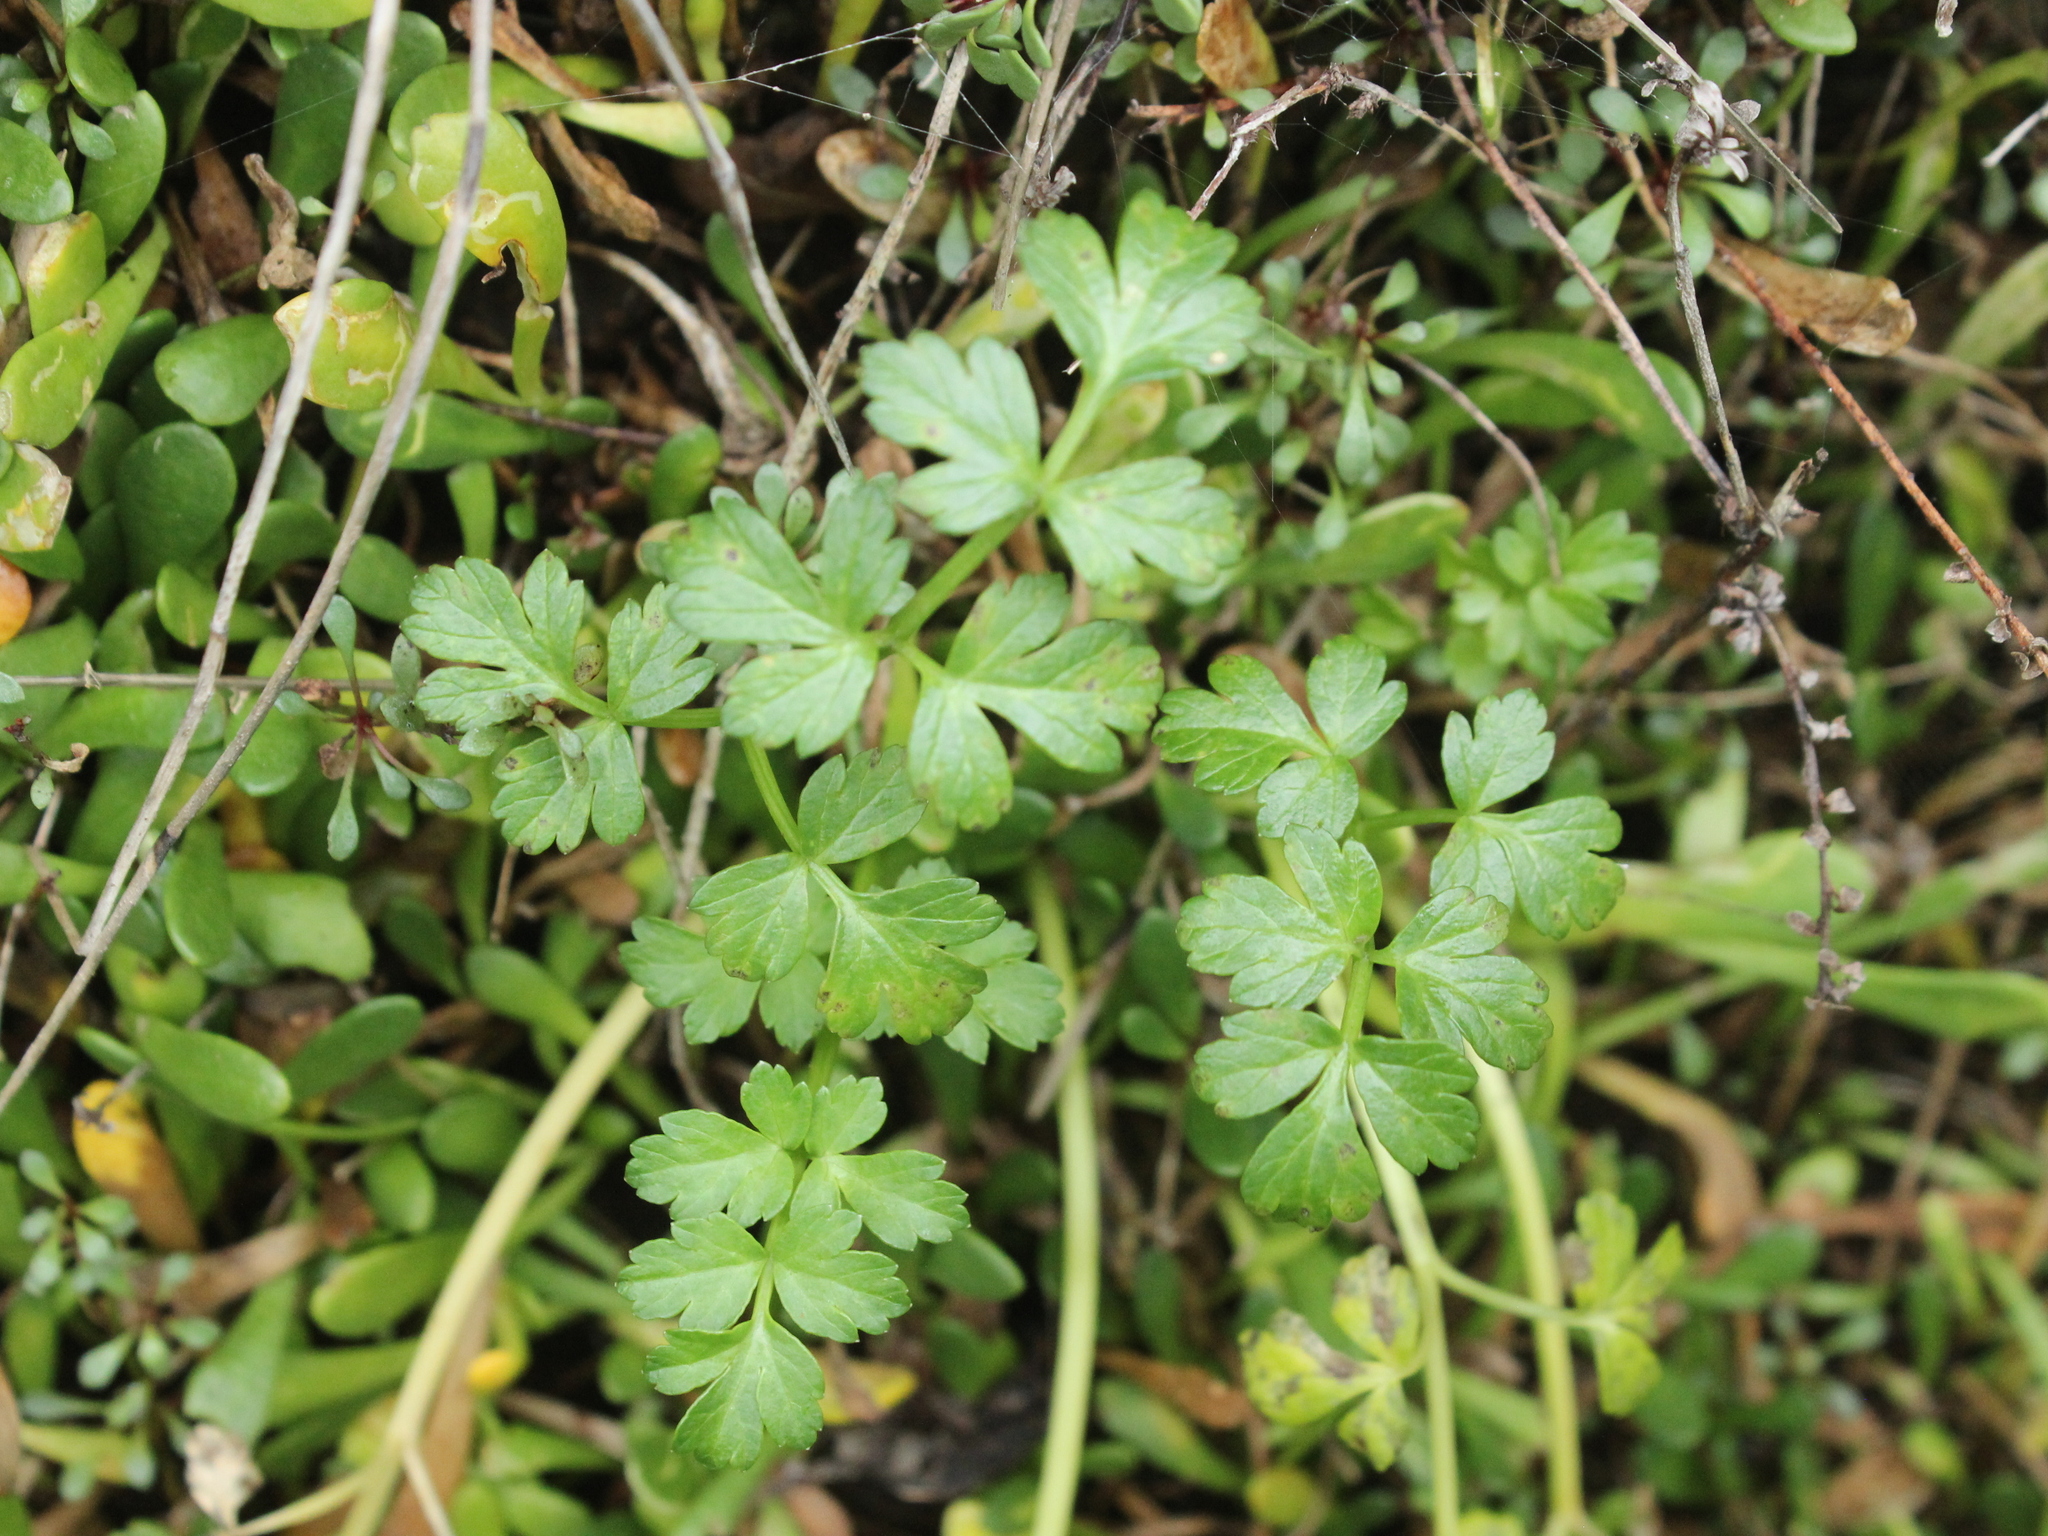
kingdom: Plantae
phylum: Tracheophyta
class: Magnoliopsida
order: Apiales
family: Apiaceae
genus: Apium
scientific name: Apium prostratum
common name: Prostrate marshwort
